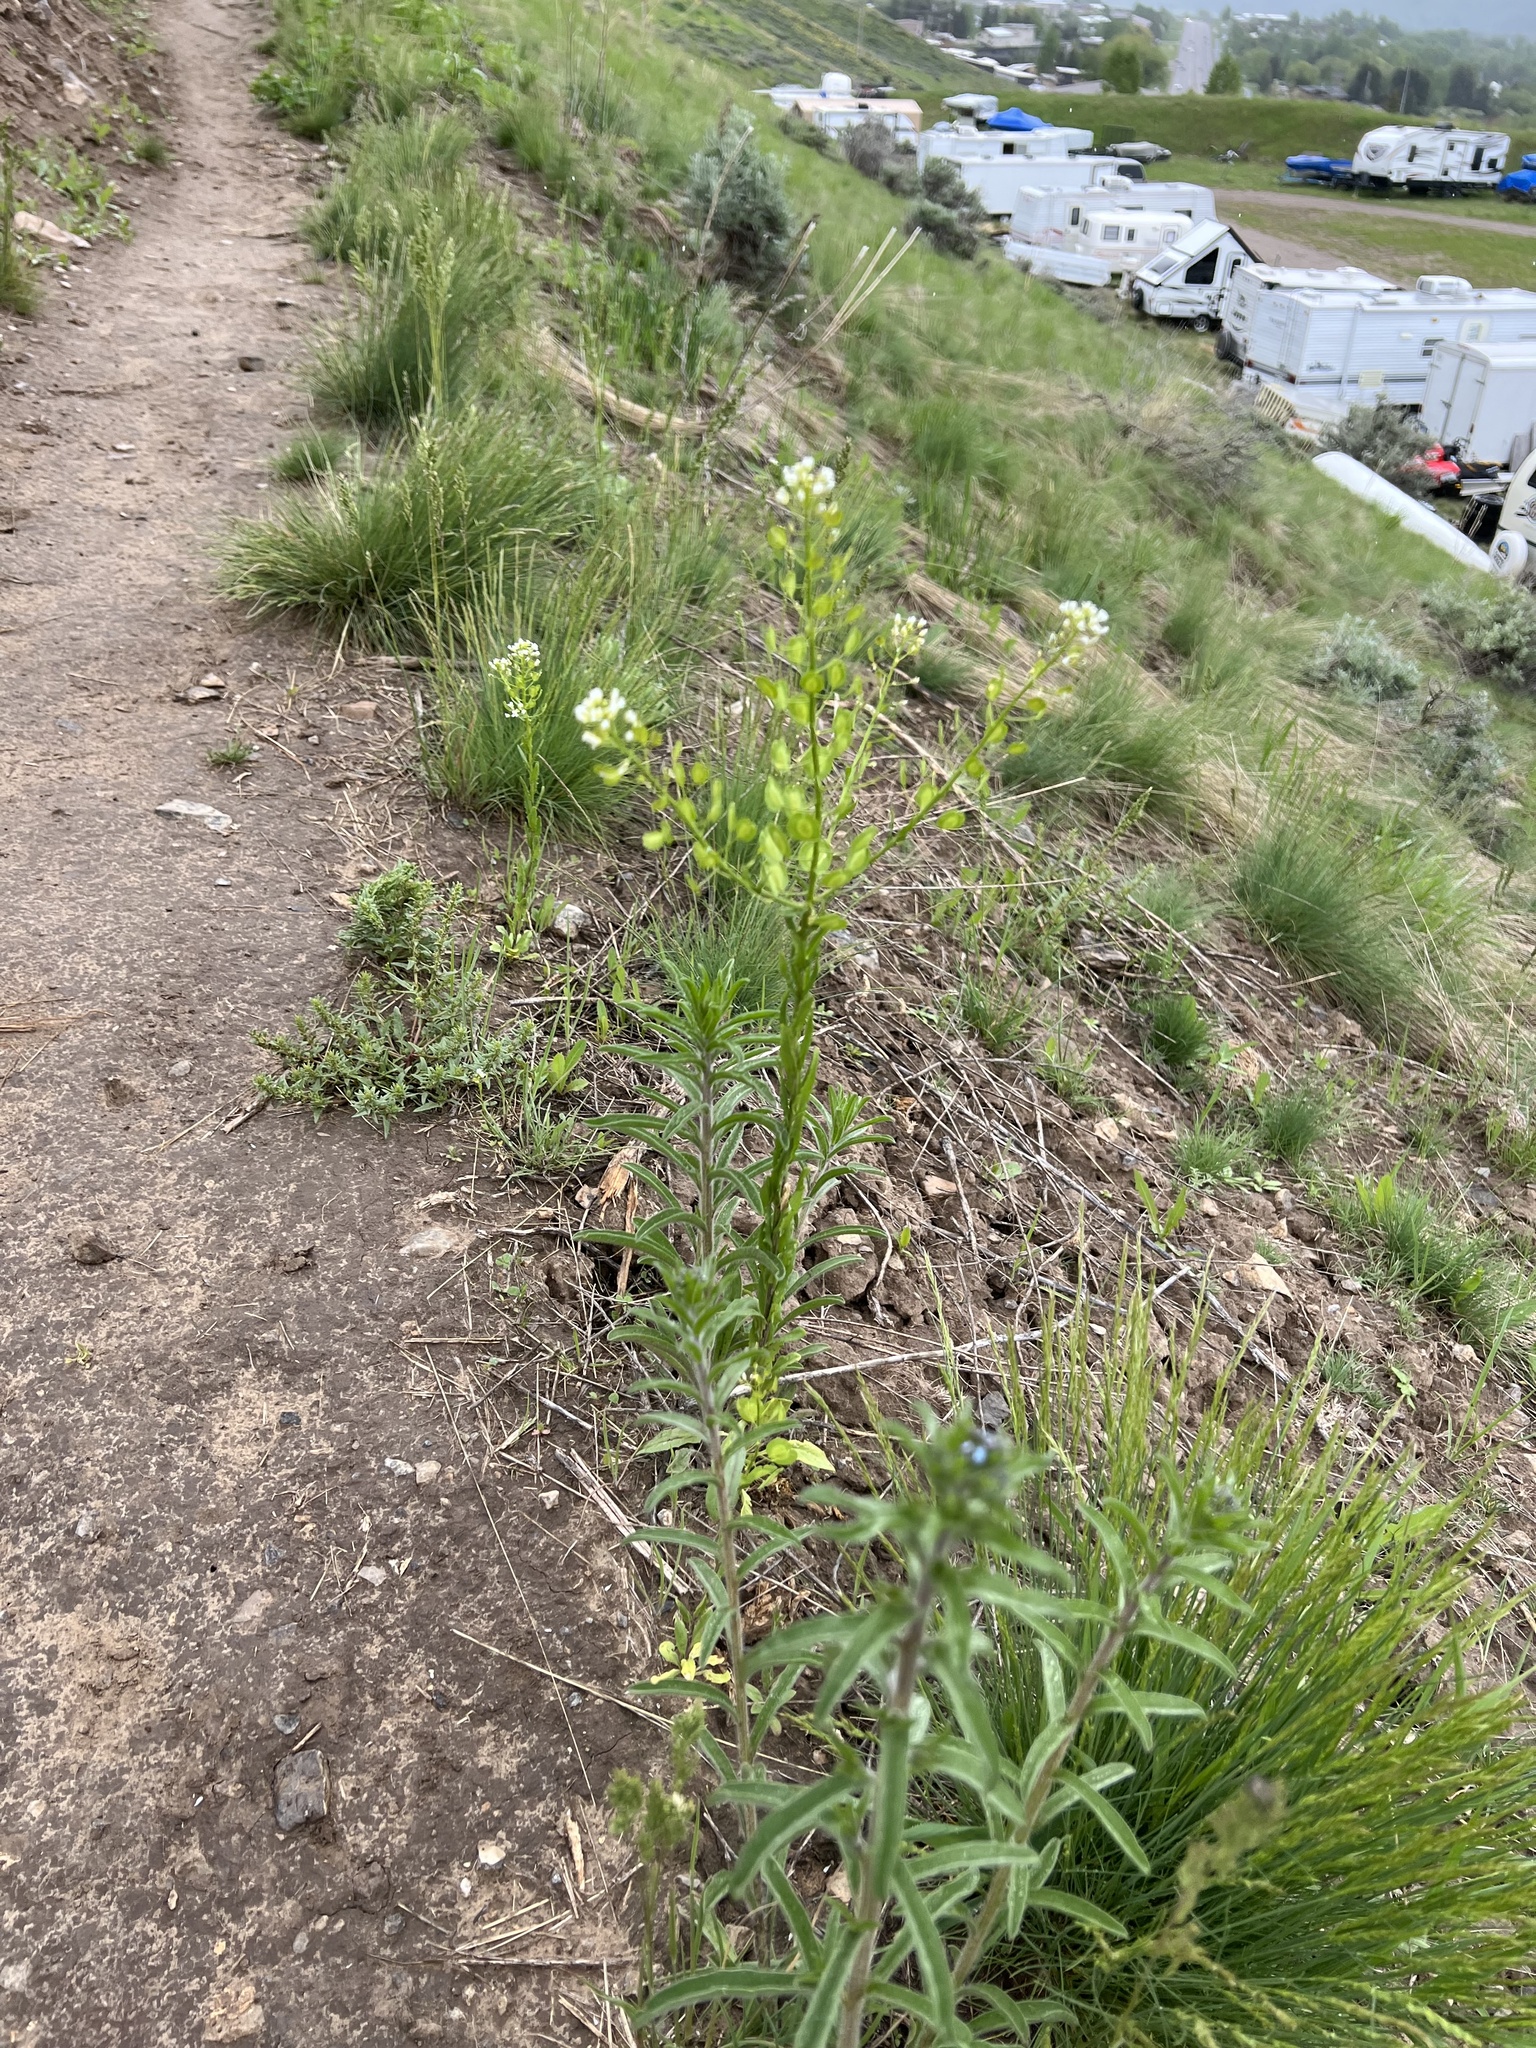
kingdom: Plantae
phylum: Tracheophyta
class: Magnoliopsida
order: Brassicales
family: Brassicaceae
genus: Thlaspi
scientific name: Thlaspi arvense
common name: Field pennycress
